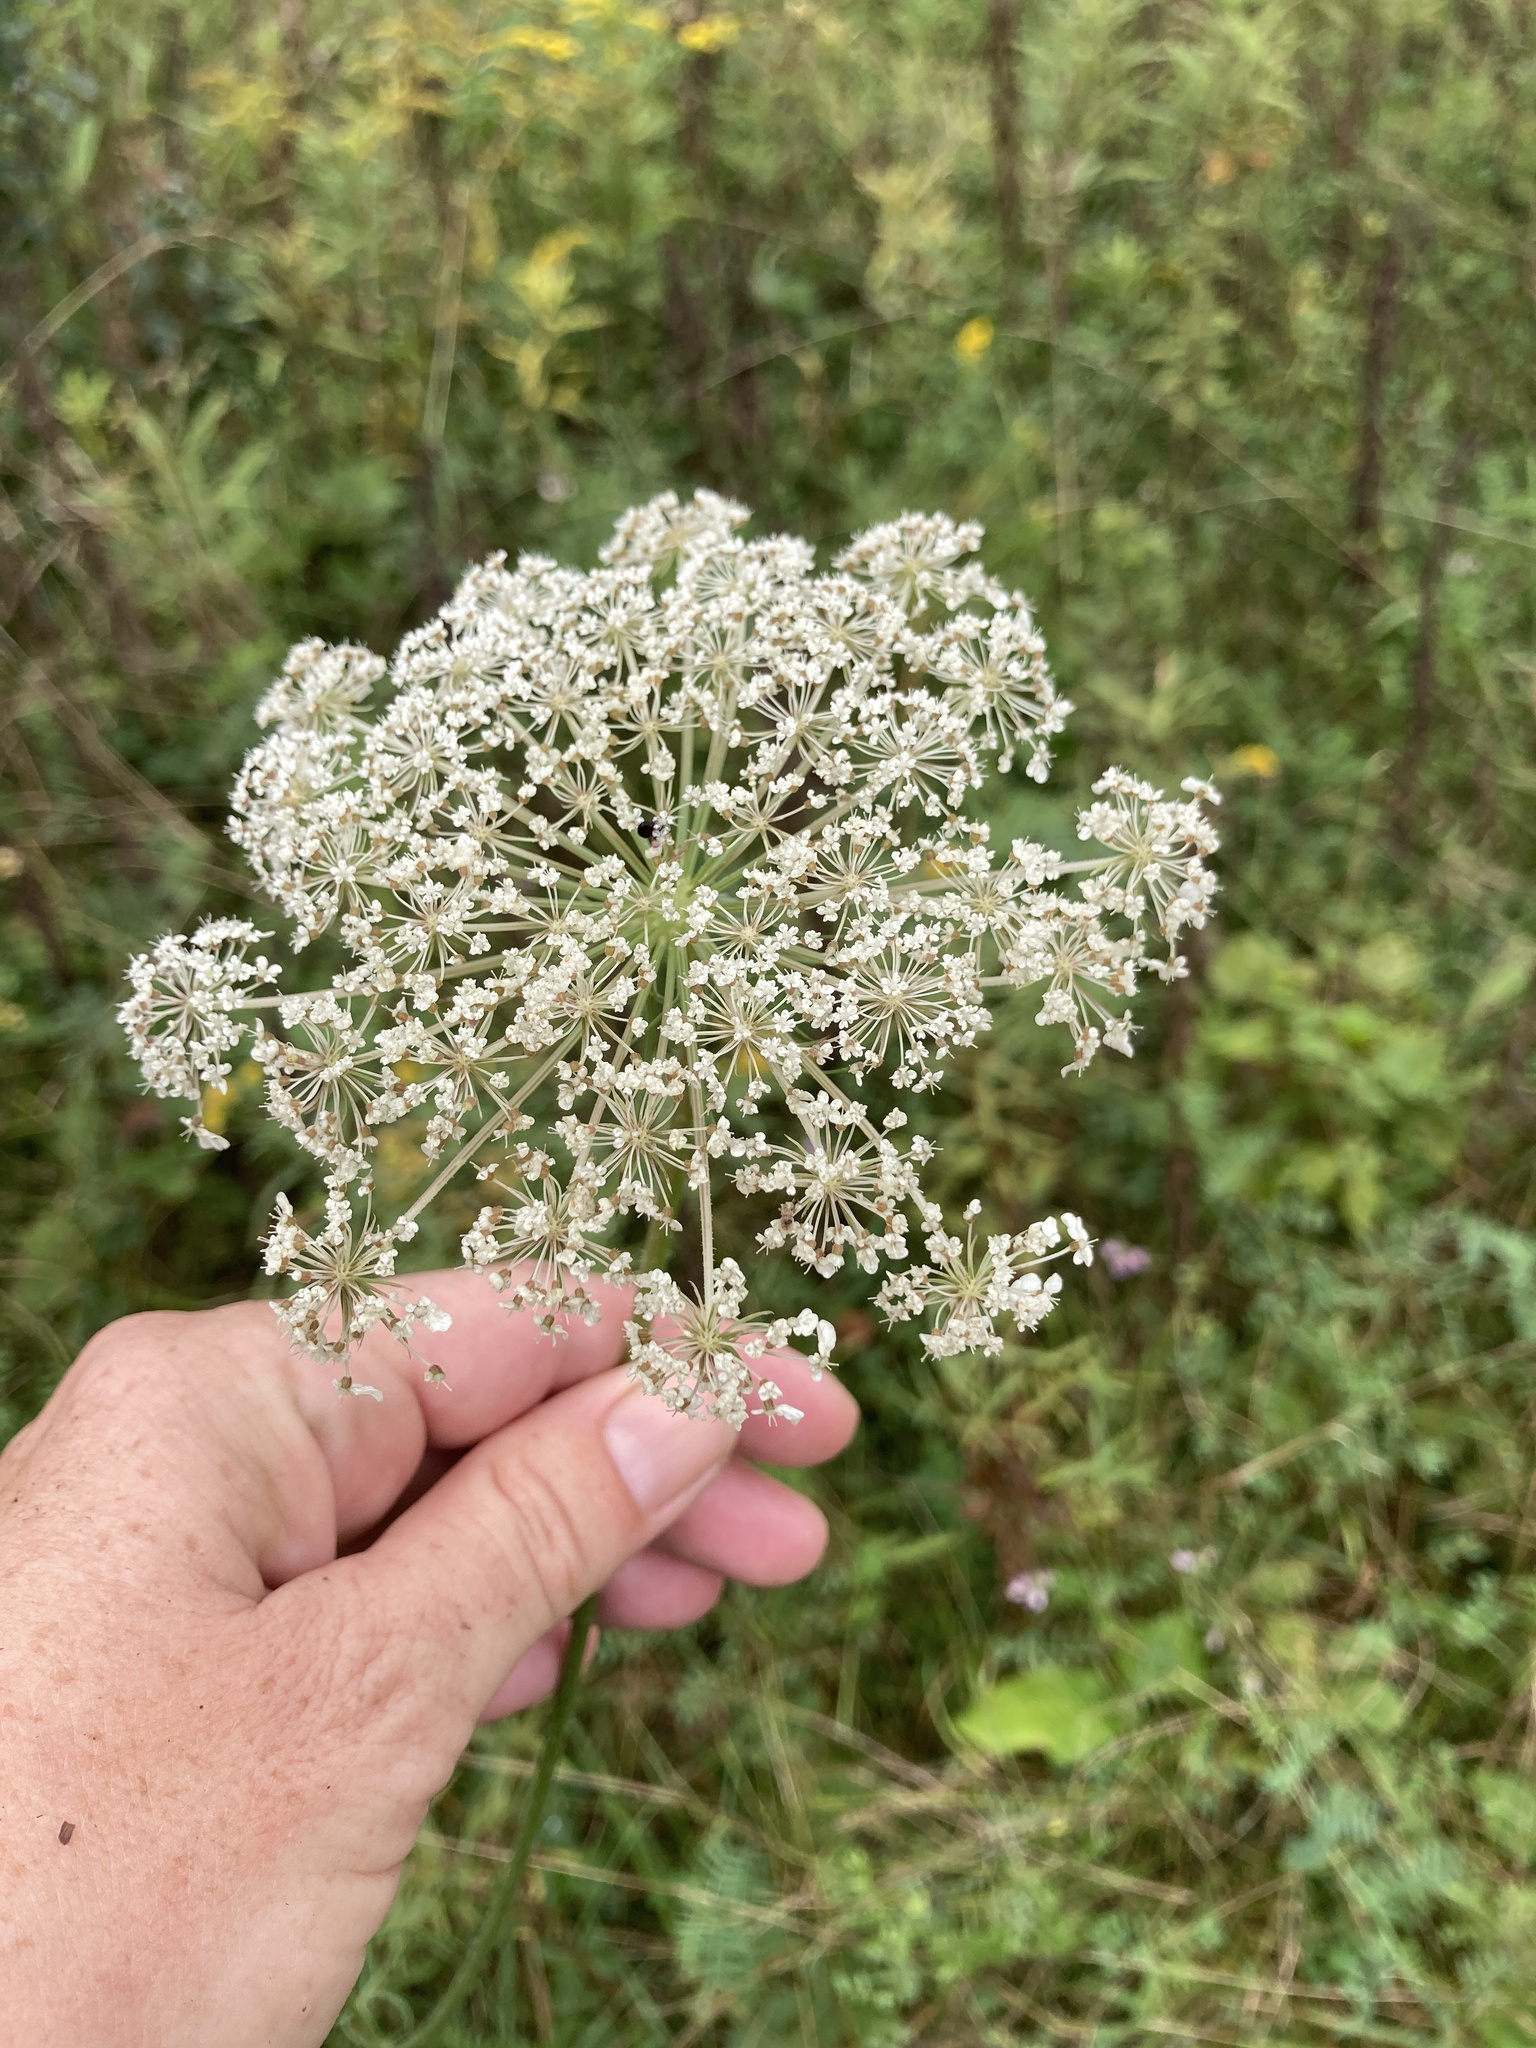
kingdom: Plantae
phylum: Tracheophyta
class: Magnoliopsida
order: Apiales
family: Apiaceae
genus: Daucus
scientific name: Daucus carota
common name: Wild carrot
